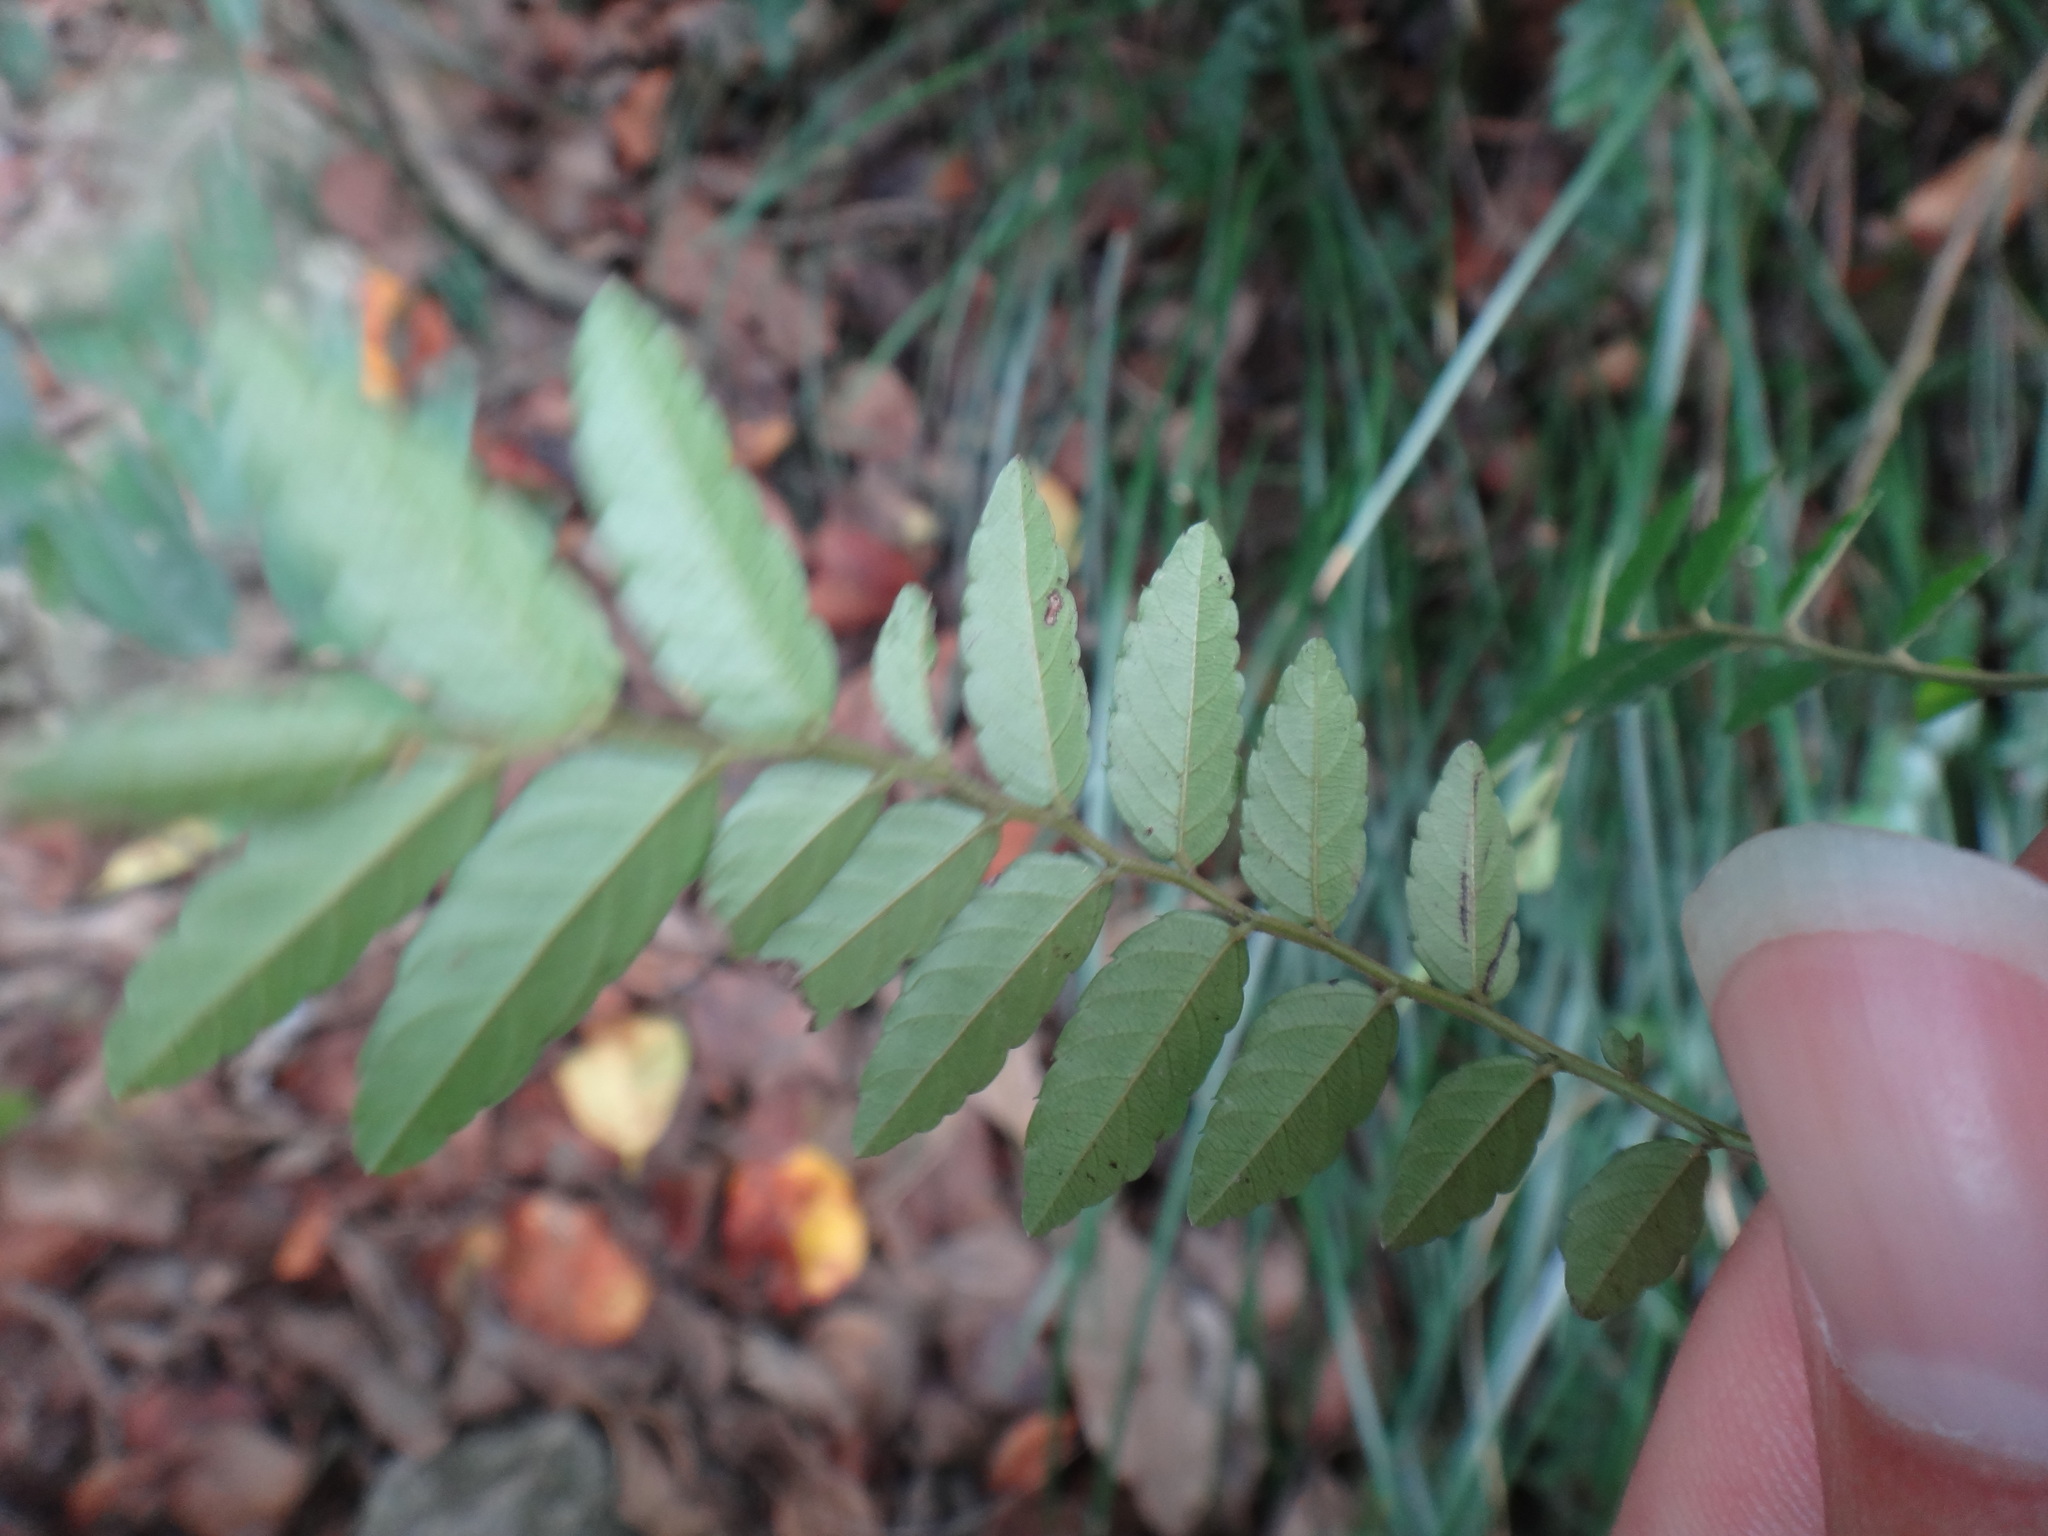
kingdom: Plantae
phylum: Tracheophyta
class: Magnoliopsida
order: Rosales
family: Rhamnaceae
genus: Ventilago
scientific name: Ventilago elegans
